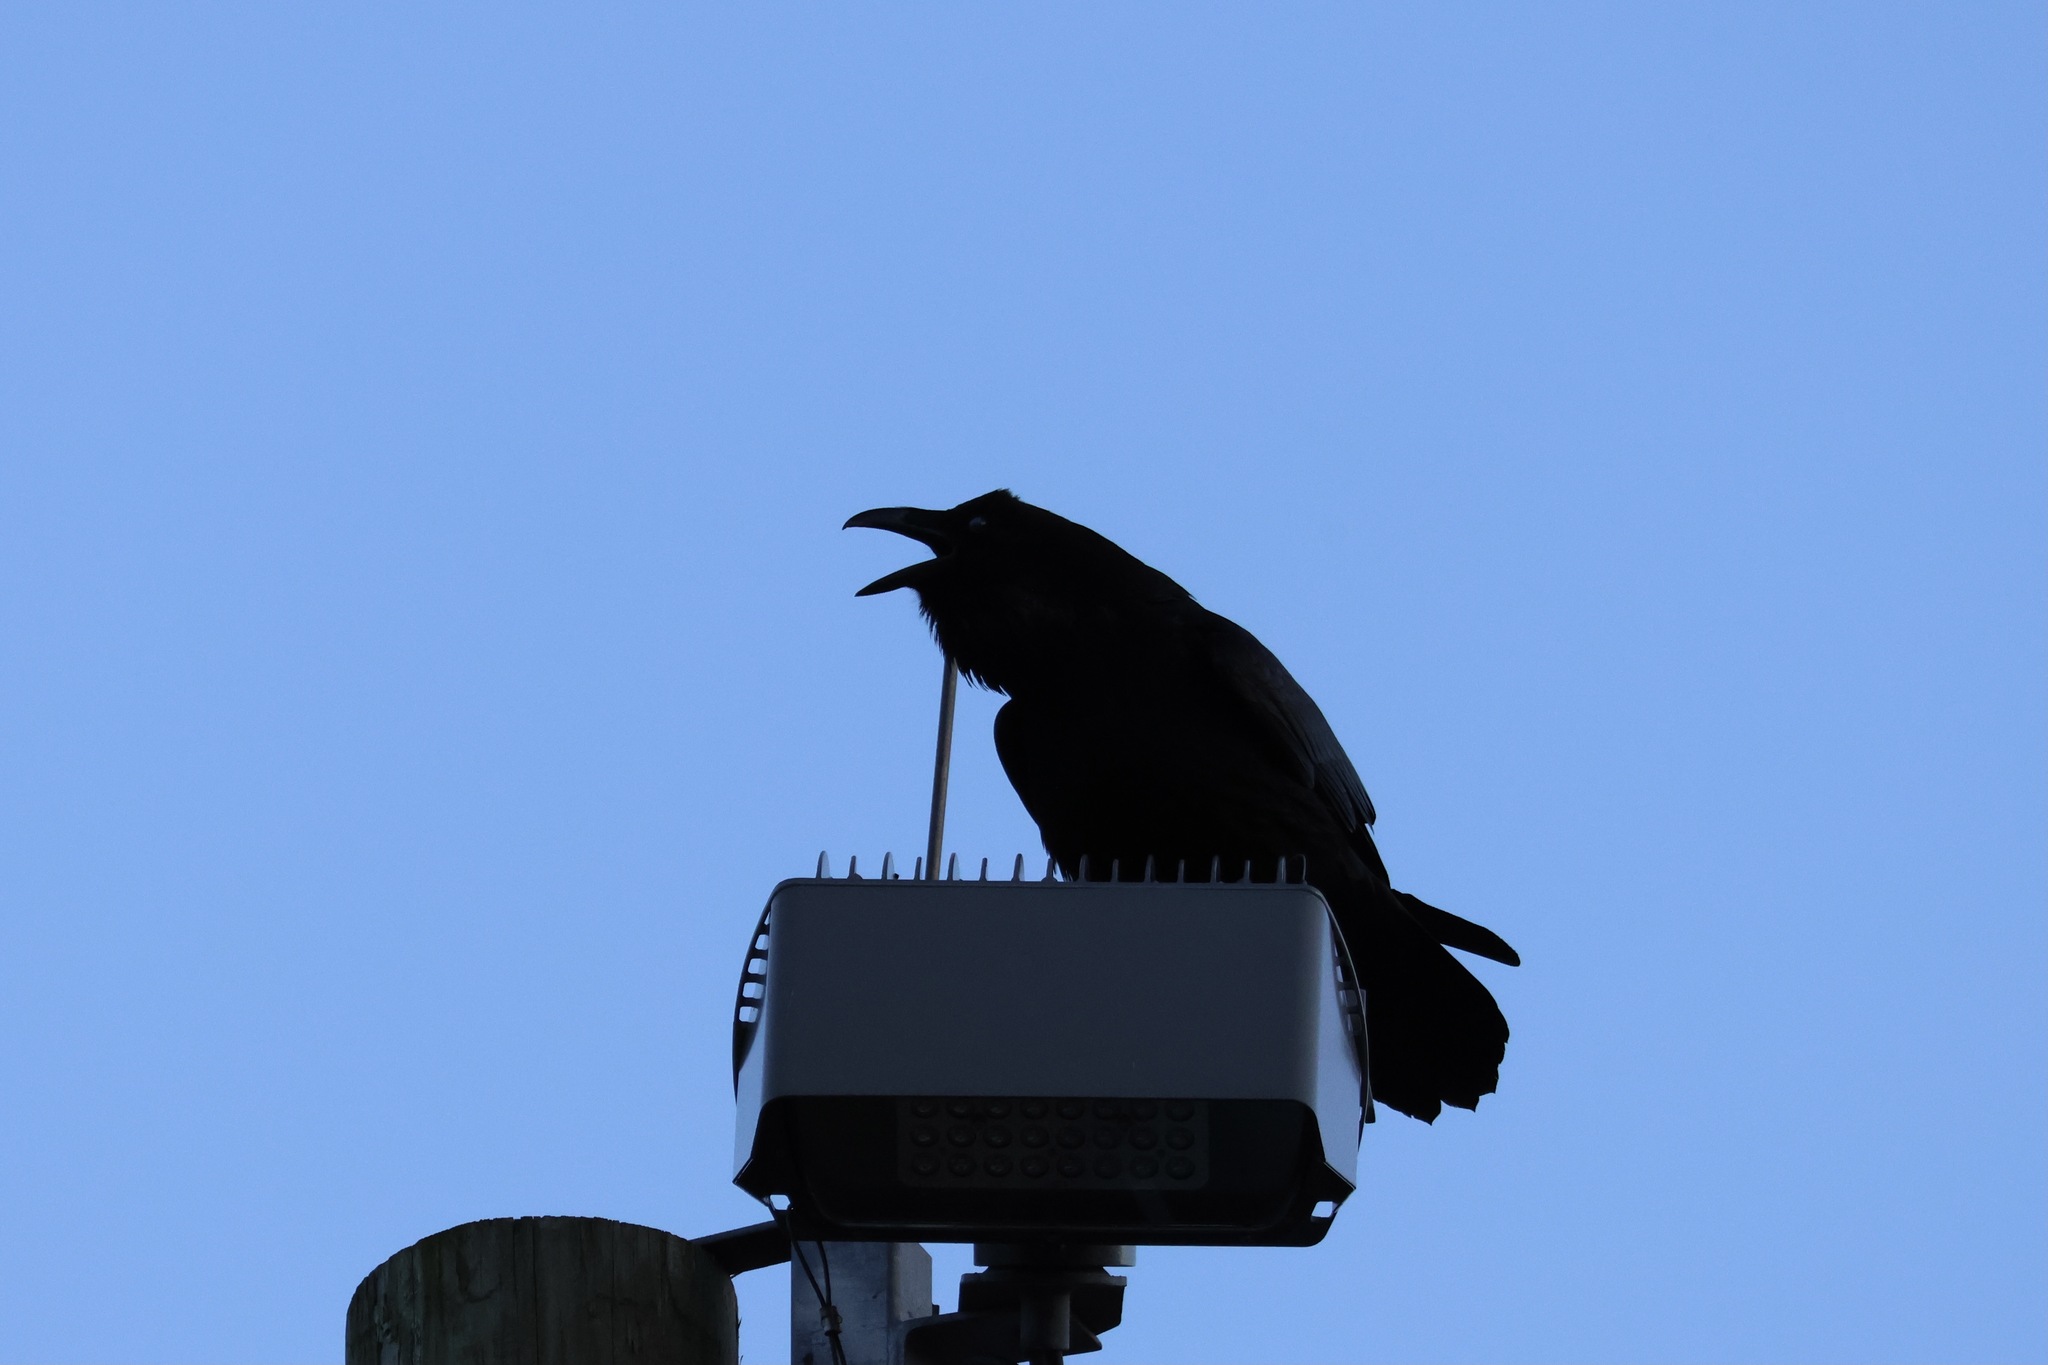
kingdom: Animalia
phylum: Chordata
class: Aves
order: Passeriformes
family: Corvidae
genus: Corvus
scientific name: Corvus corax
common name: Common raven
